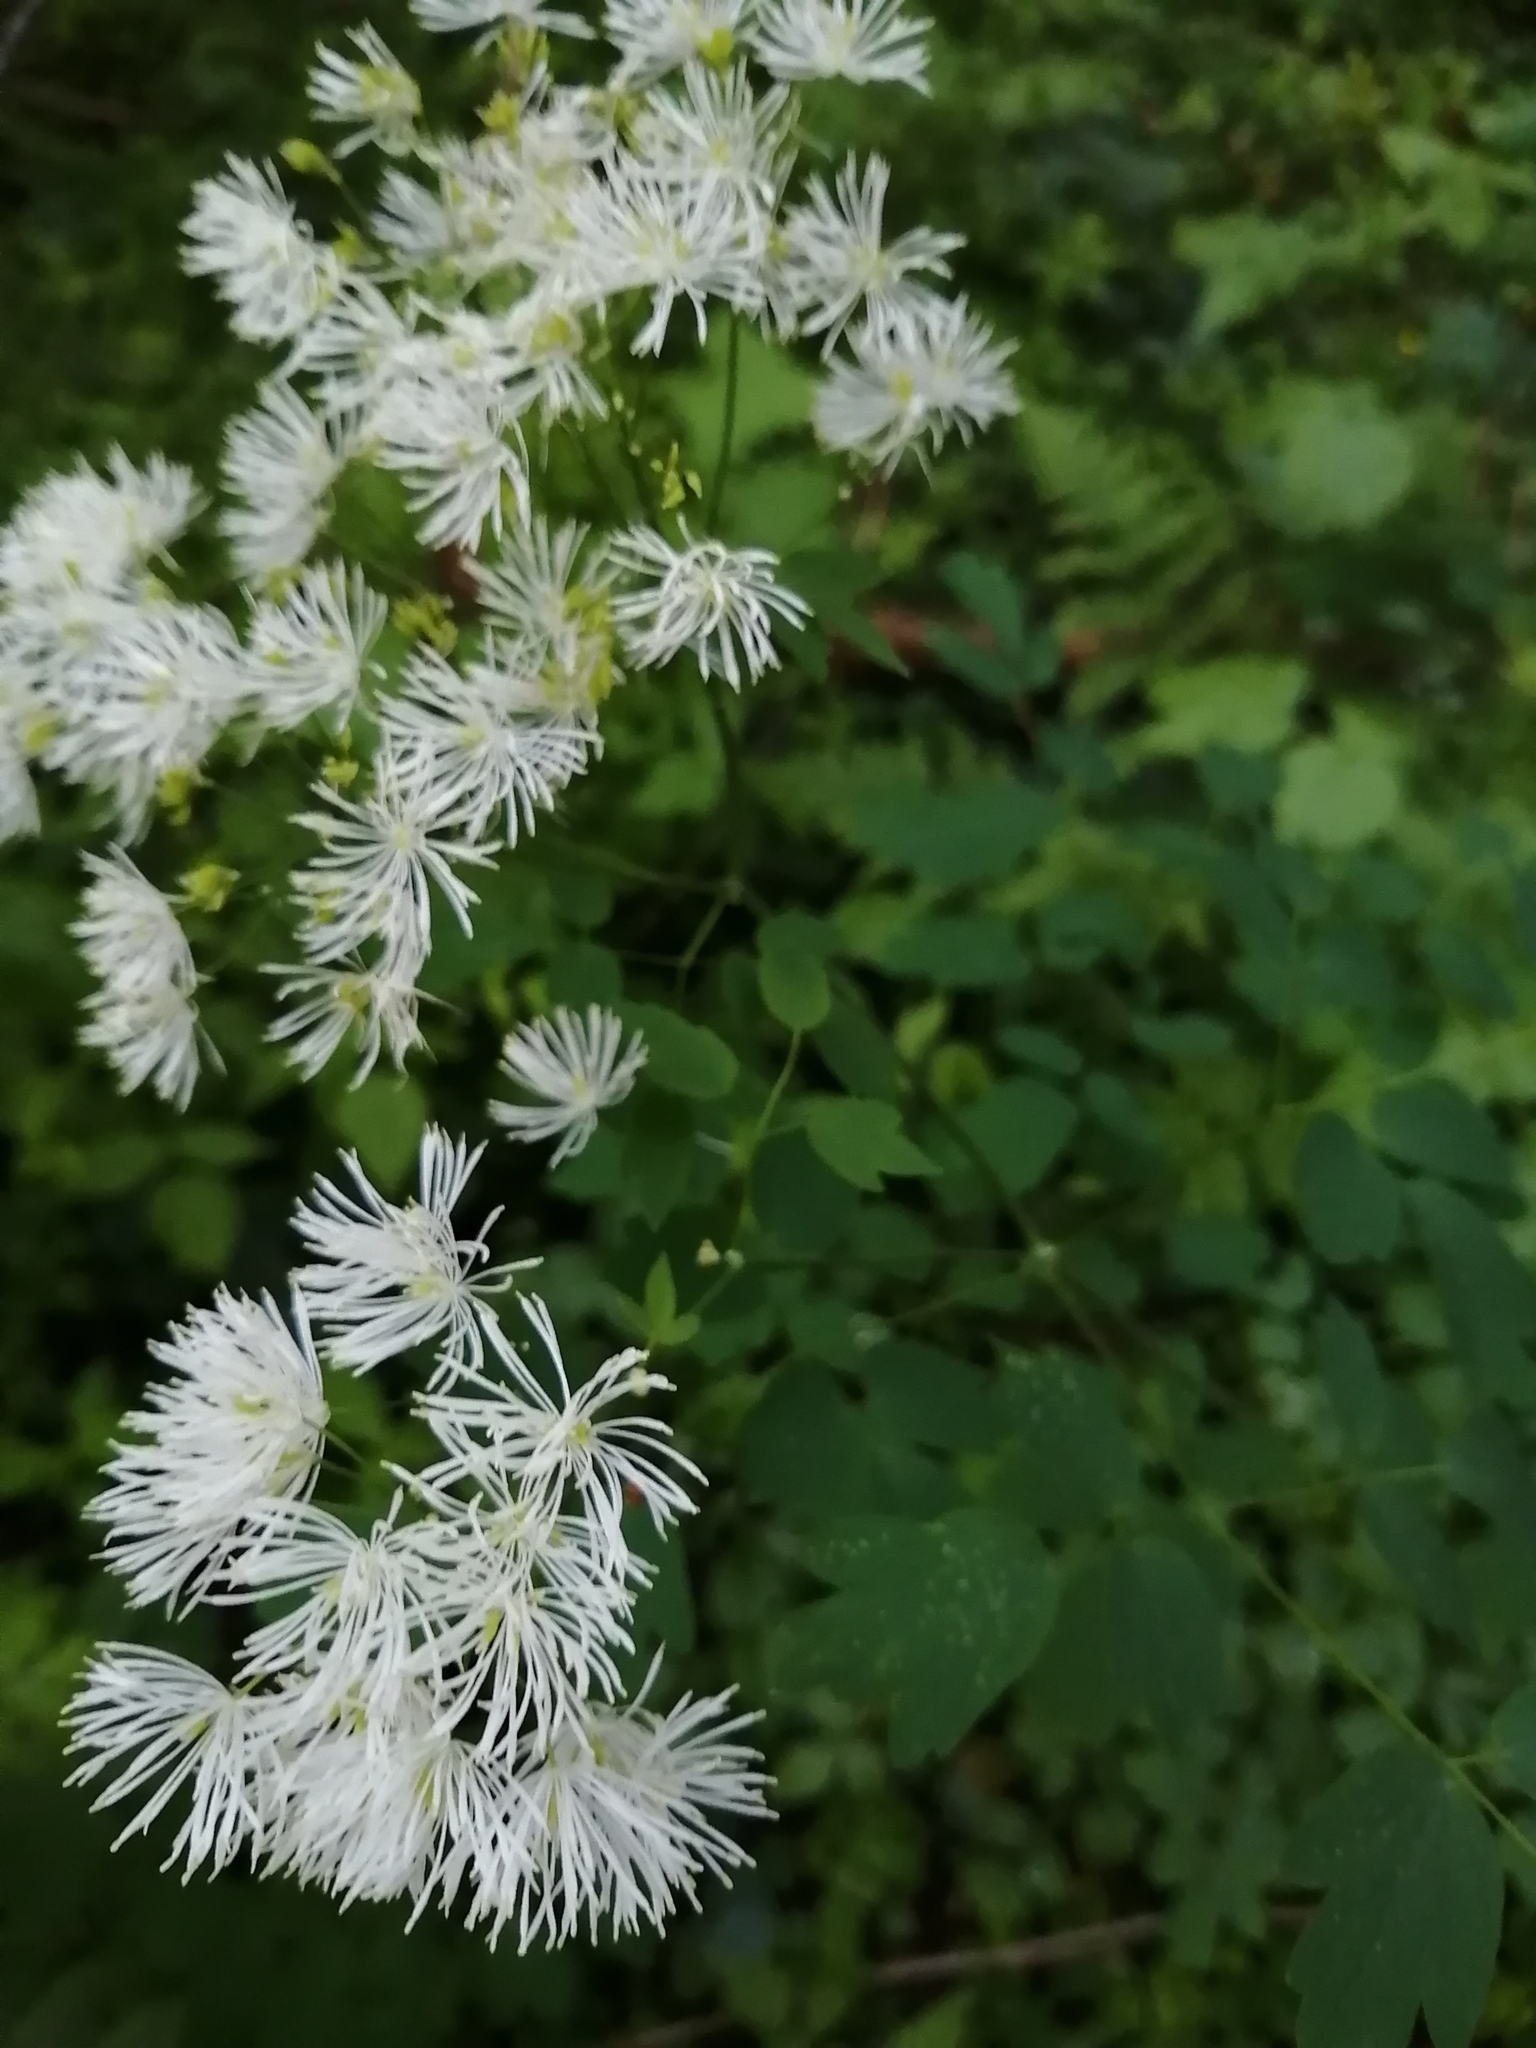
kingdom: Plantae
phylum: Tracheophyta
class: Magnoliopsida
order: Ranunculales
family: Ranunculaceae
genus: Thalictrum
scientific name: Thalictrum aquilegiifolium
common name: French meadow-rue
